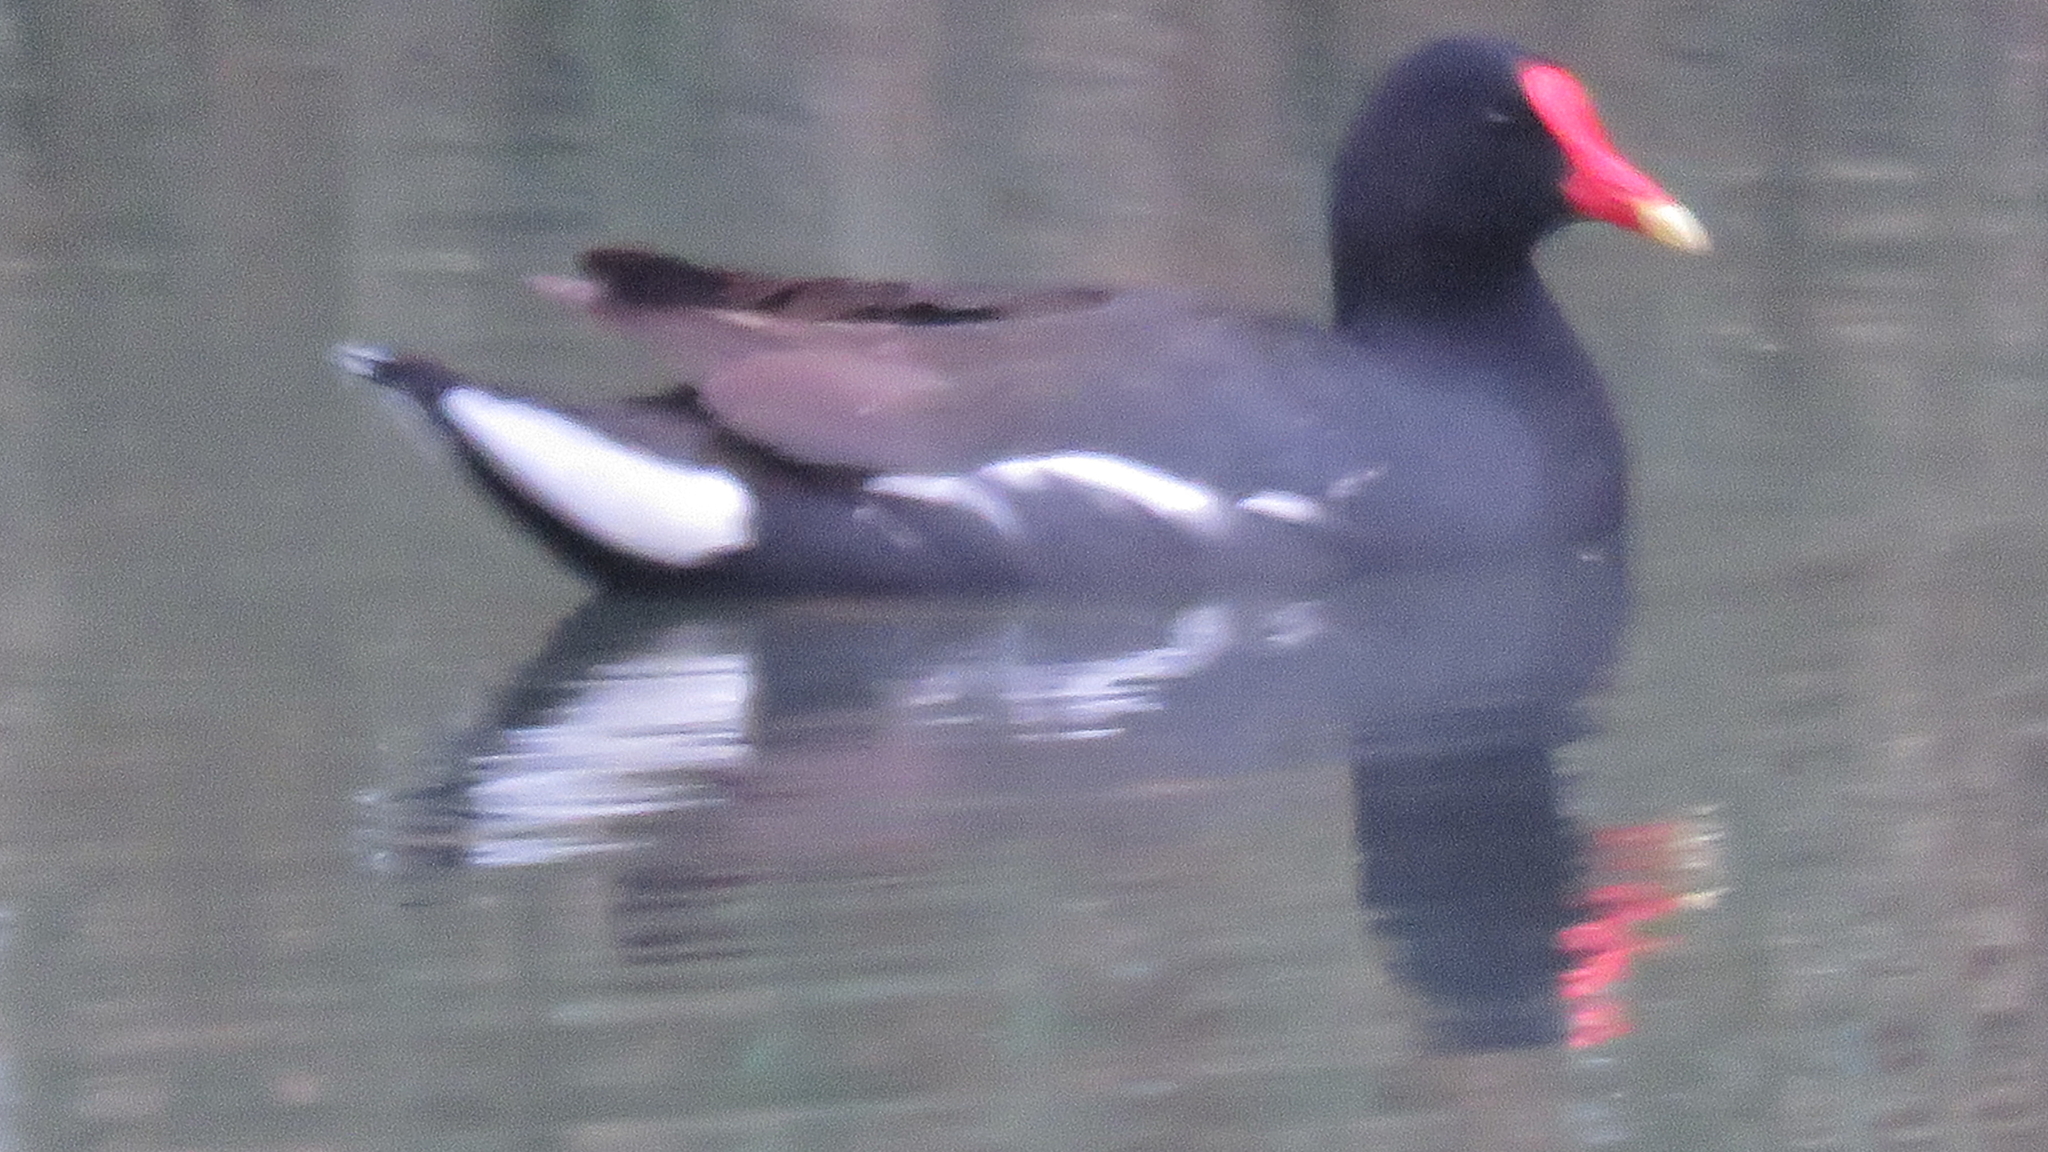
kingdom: Animalia
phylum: Chordata
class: Aves
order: Gruiformes
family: Rallidae
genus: Gallinula
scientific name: Gallinula chloropus
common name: Common moorhen
